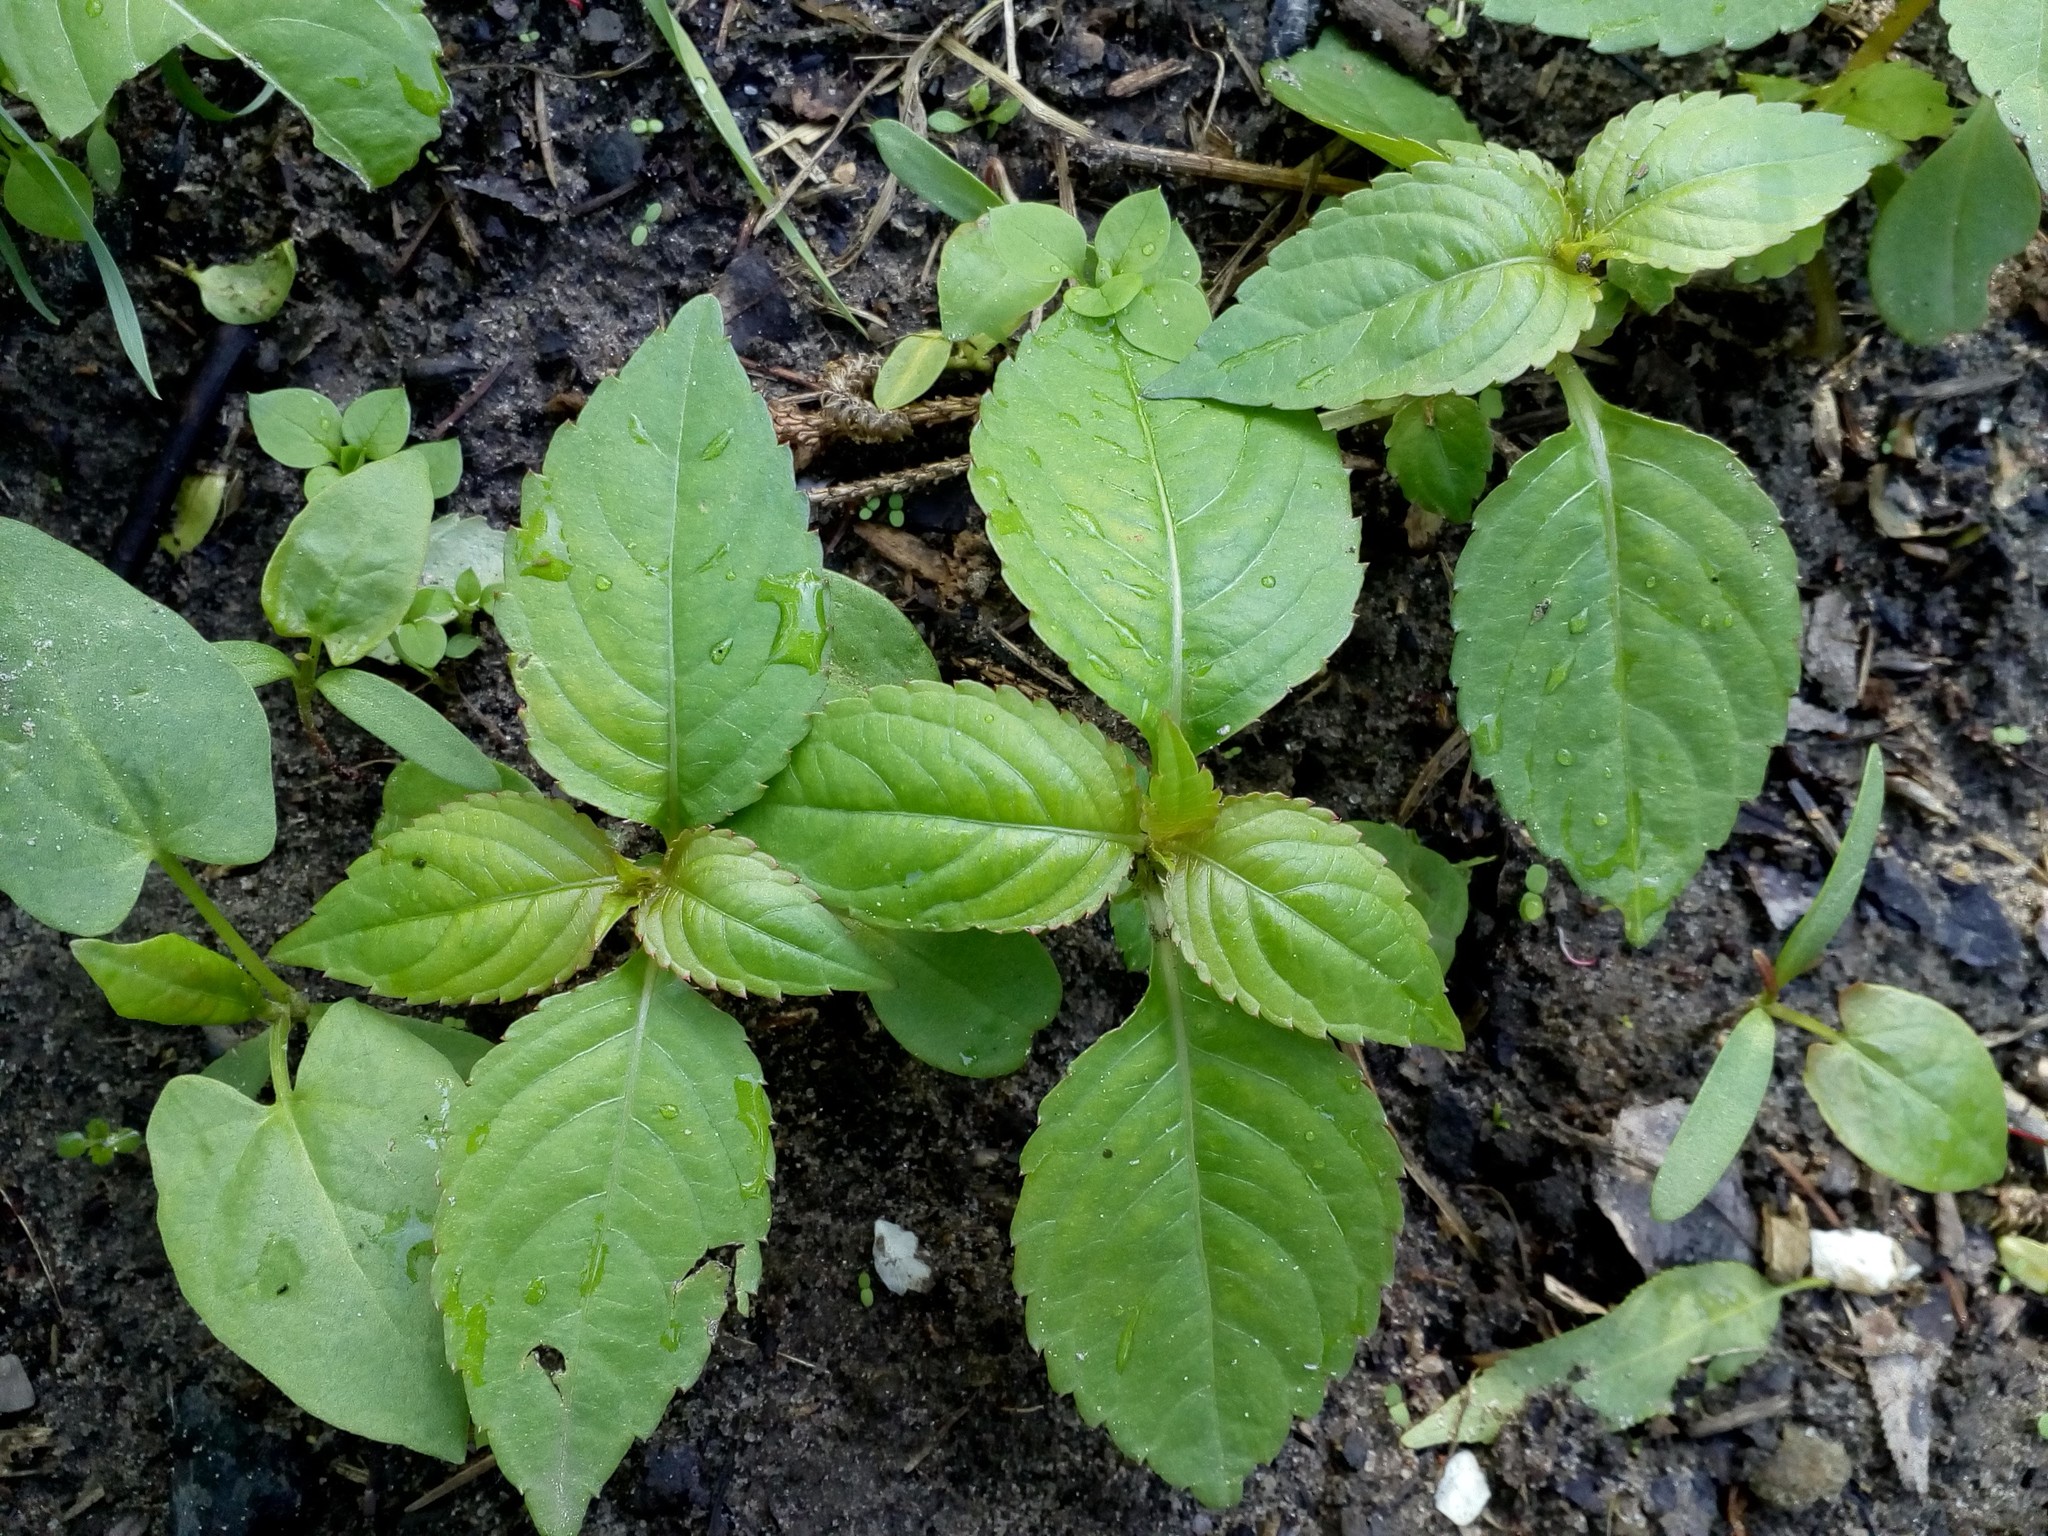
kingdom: Plantae
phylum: Tracheophyta
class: Magnoliopsida
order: Ericales
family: Balsaminaceae
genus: Impatiens
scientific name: Impatiens parviflora
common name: Small balsam
